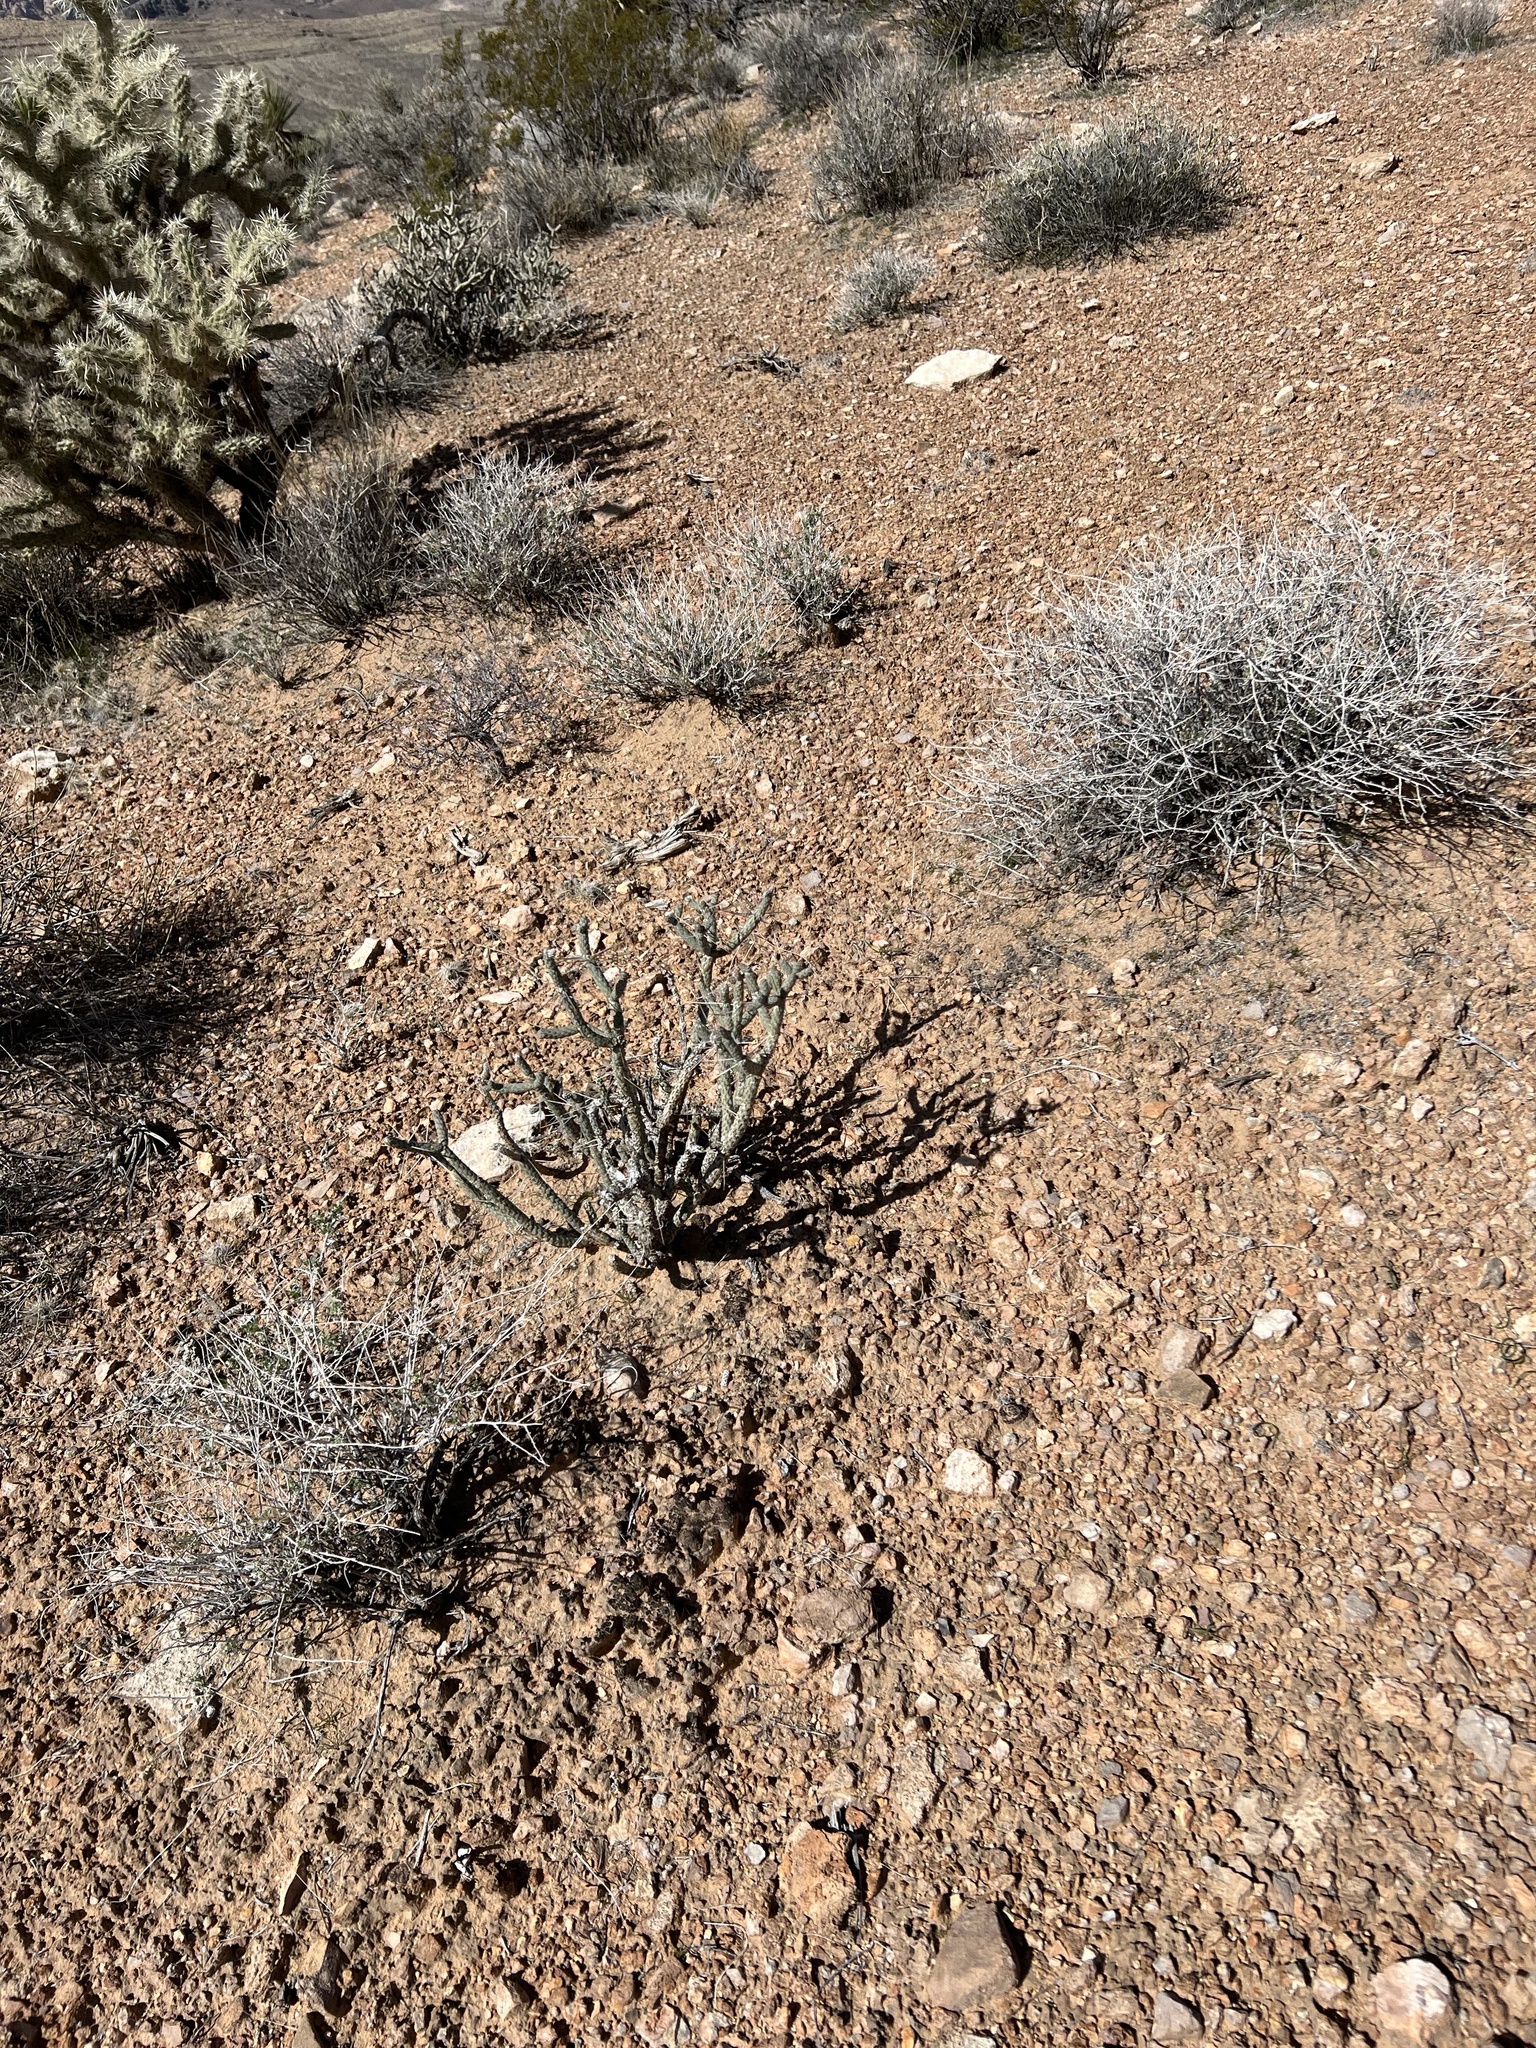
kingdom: Plantae
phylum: Tracheophyta
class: Magnoliopsida
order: Caryophyllales
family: Cactaceae
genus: Cylindropuntia
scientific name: Cylindropuntia ramosissima
